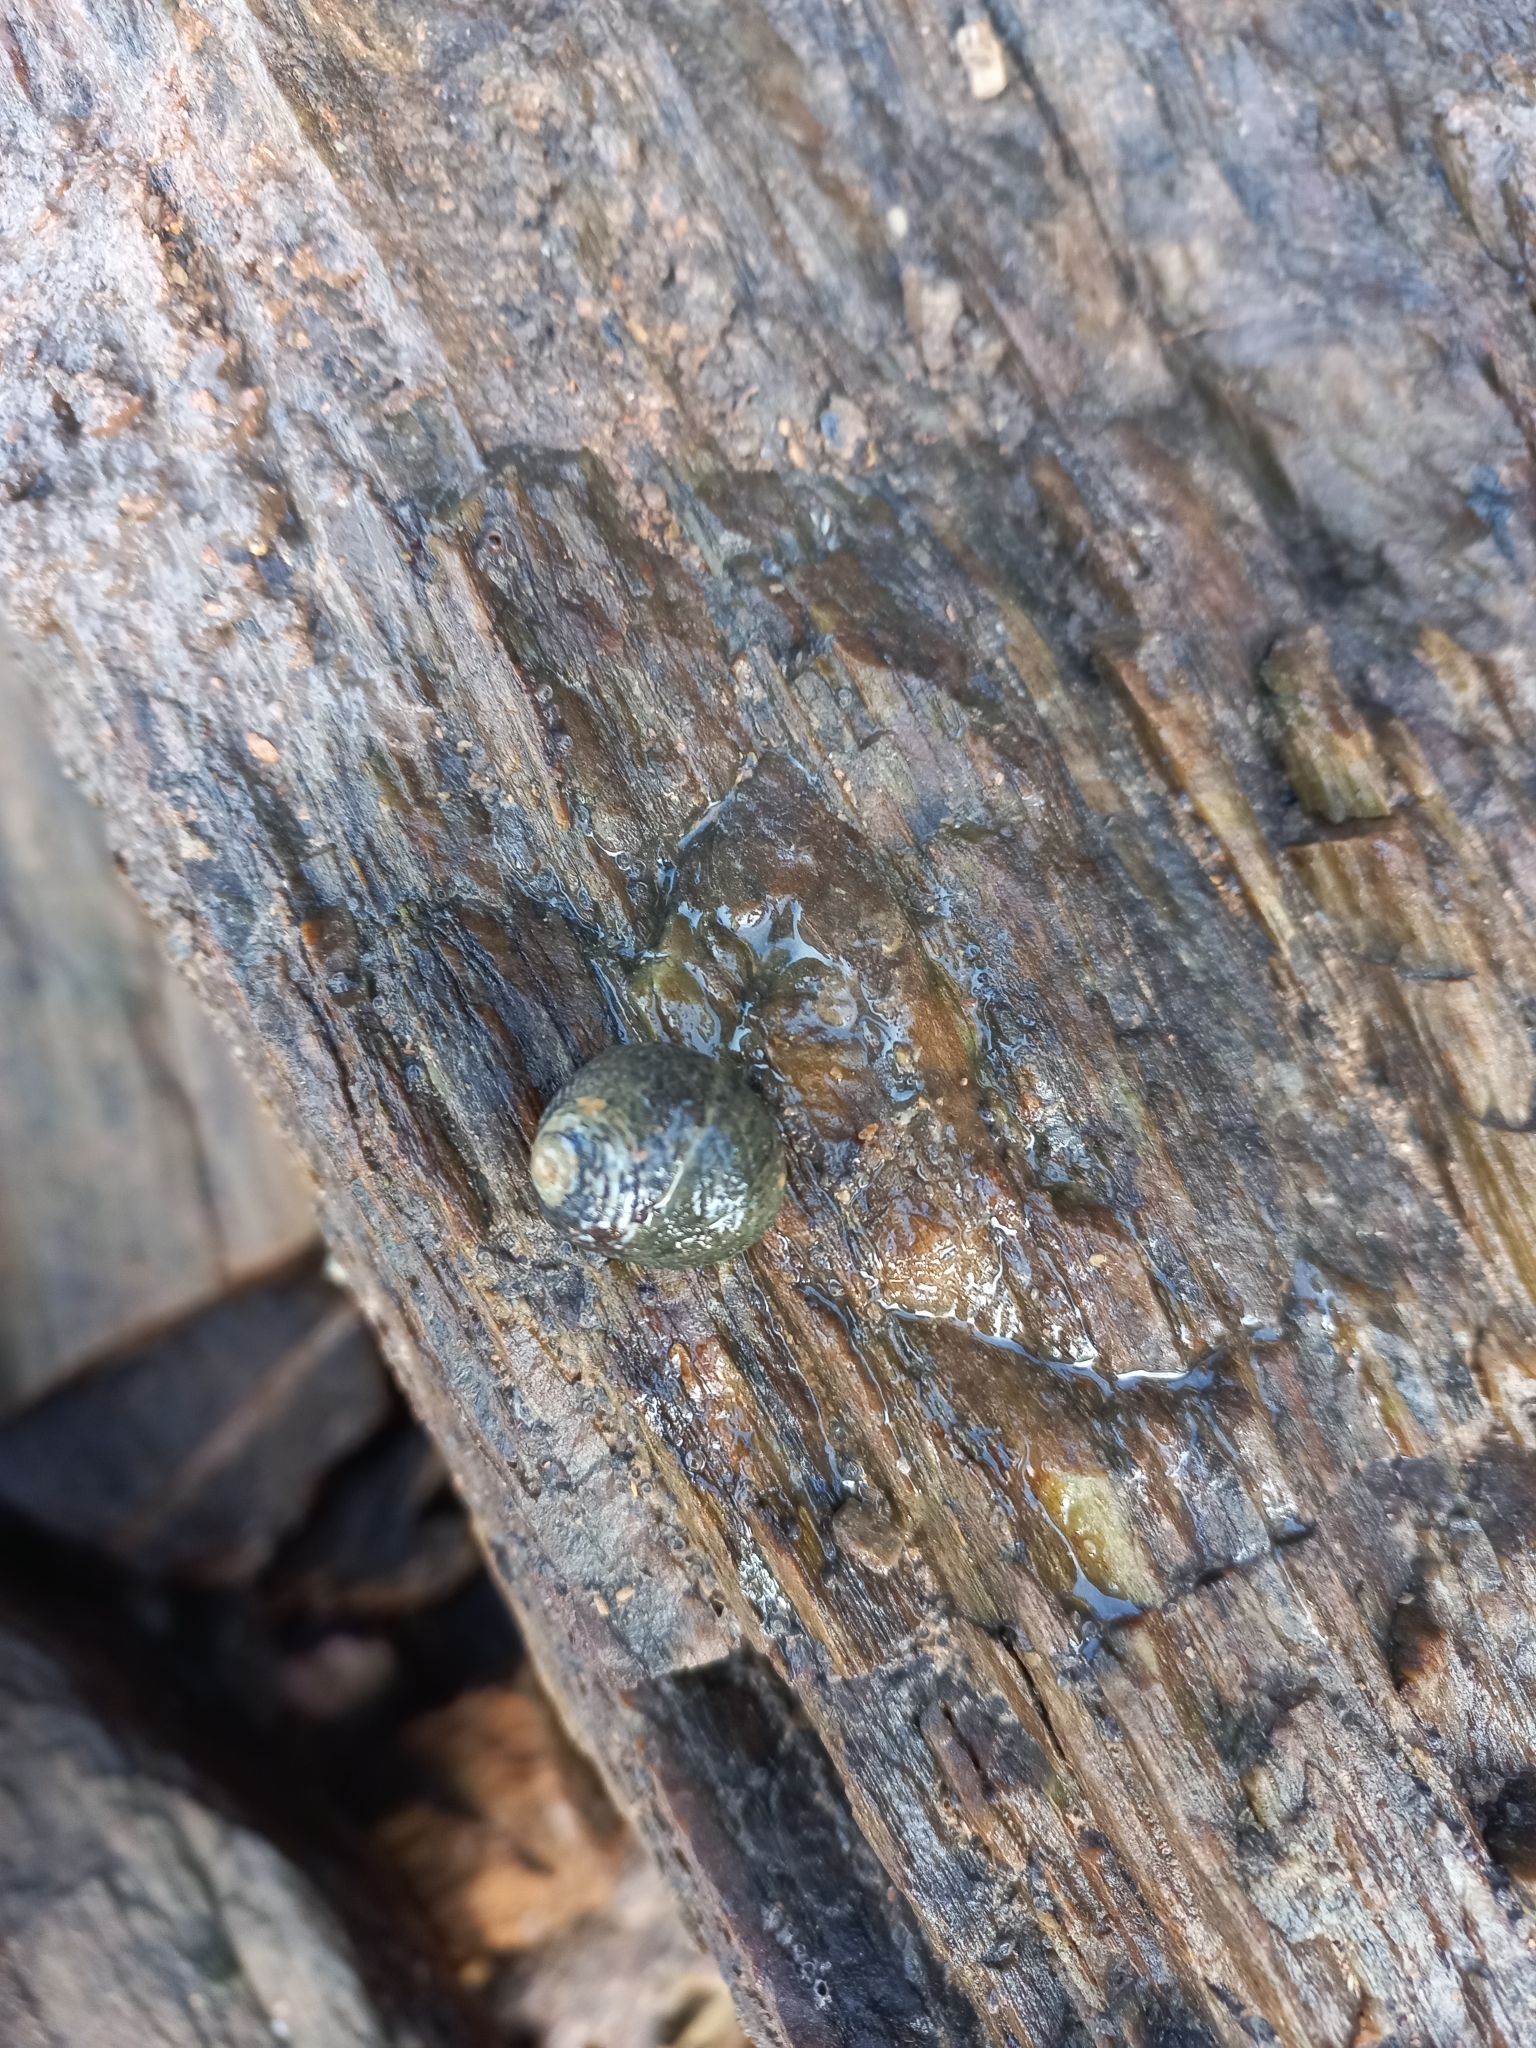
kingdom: Animalia
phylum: Mollusca
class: Gastropoda
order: Trochida
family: Trochidae
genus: Diloma
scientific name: Diloma aethiops
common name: Scorched monodont
